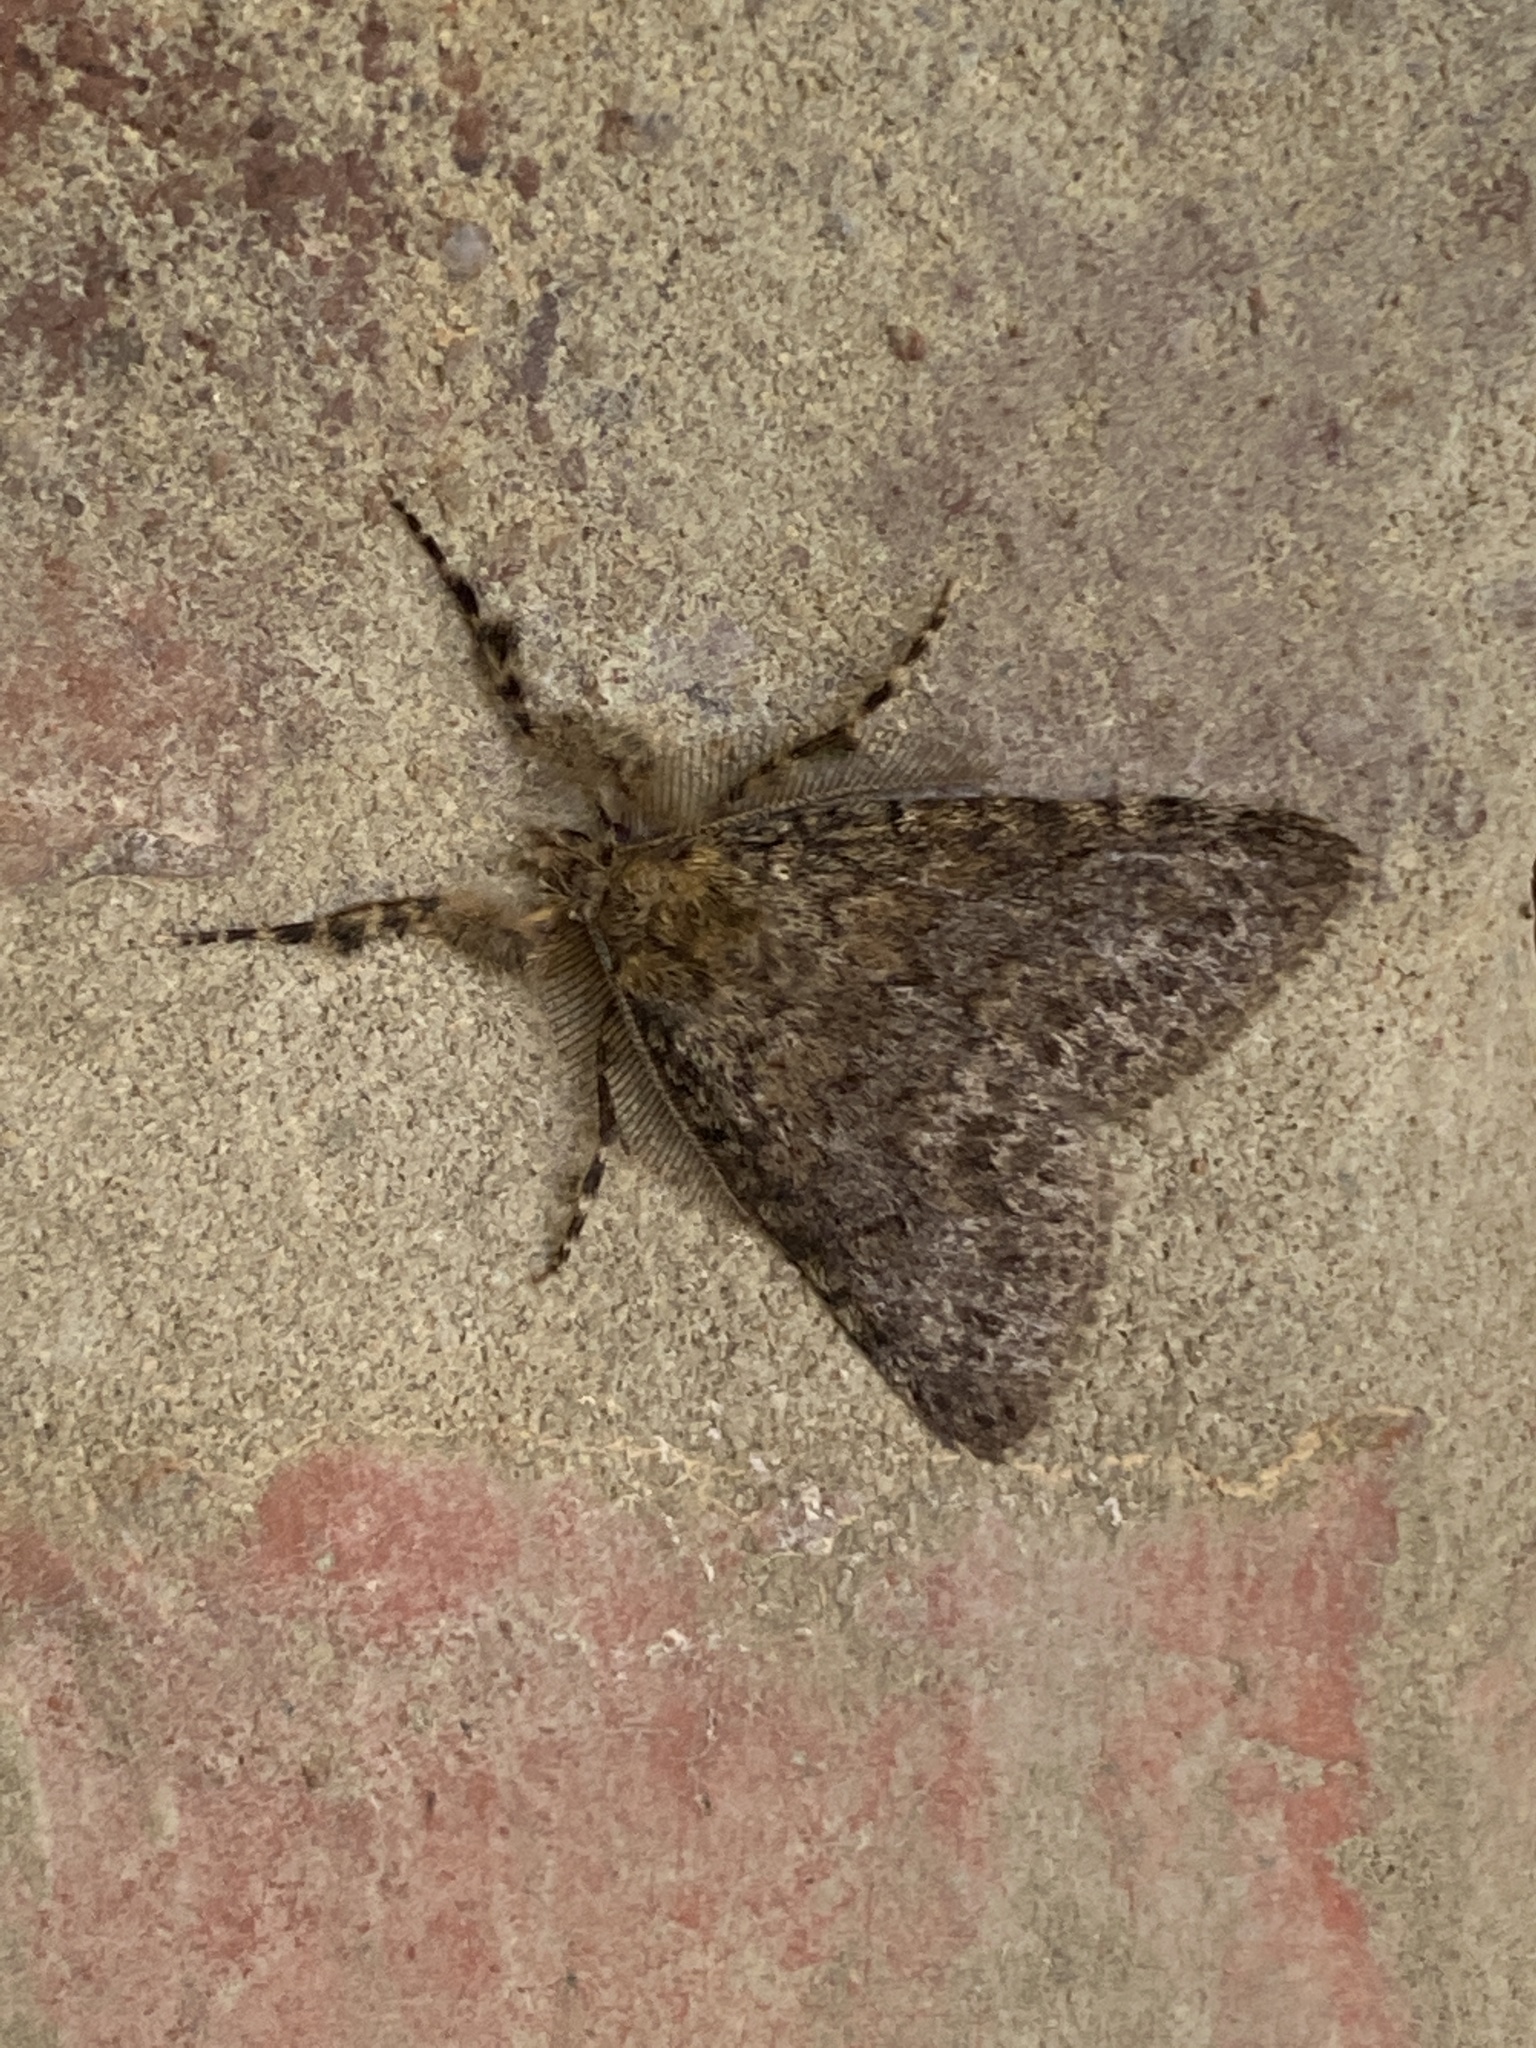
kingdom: Animalia
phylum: Arthropoda
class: Insecta
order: Lepidoptera
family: Erebidae
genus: Laelia
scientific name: Laelia fusca
